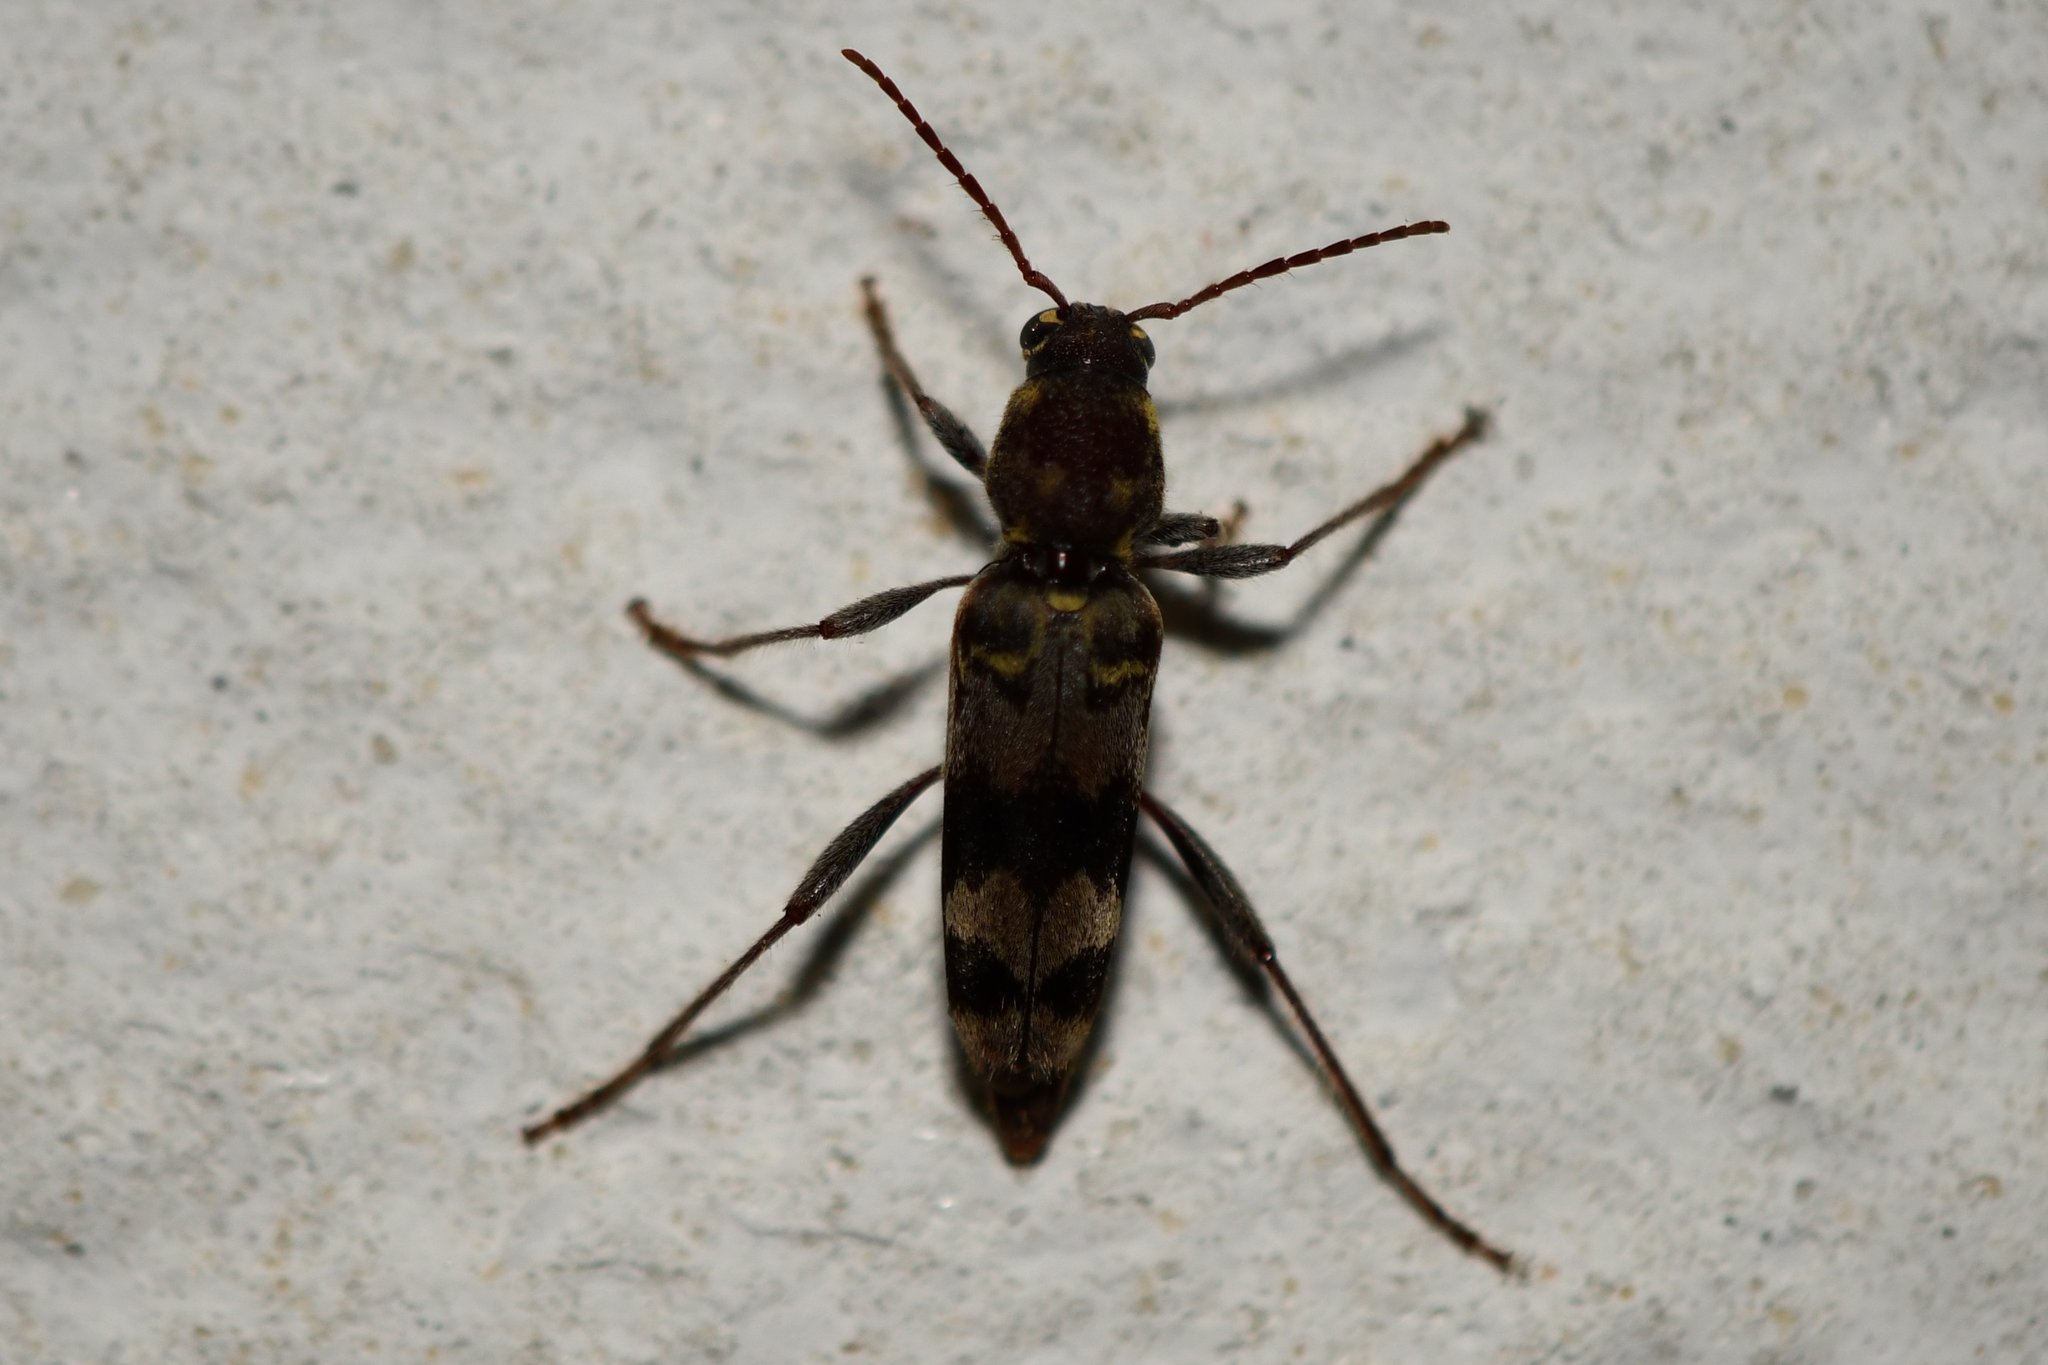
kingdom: Animalia
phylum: Arthropoda
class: Insecta
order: Coleoptera
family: Cerambycidae
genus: Xylotrechus
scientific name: Xylotrechus colonus
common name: Long-horned beetle
